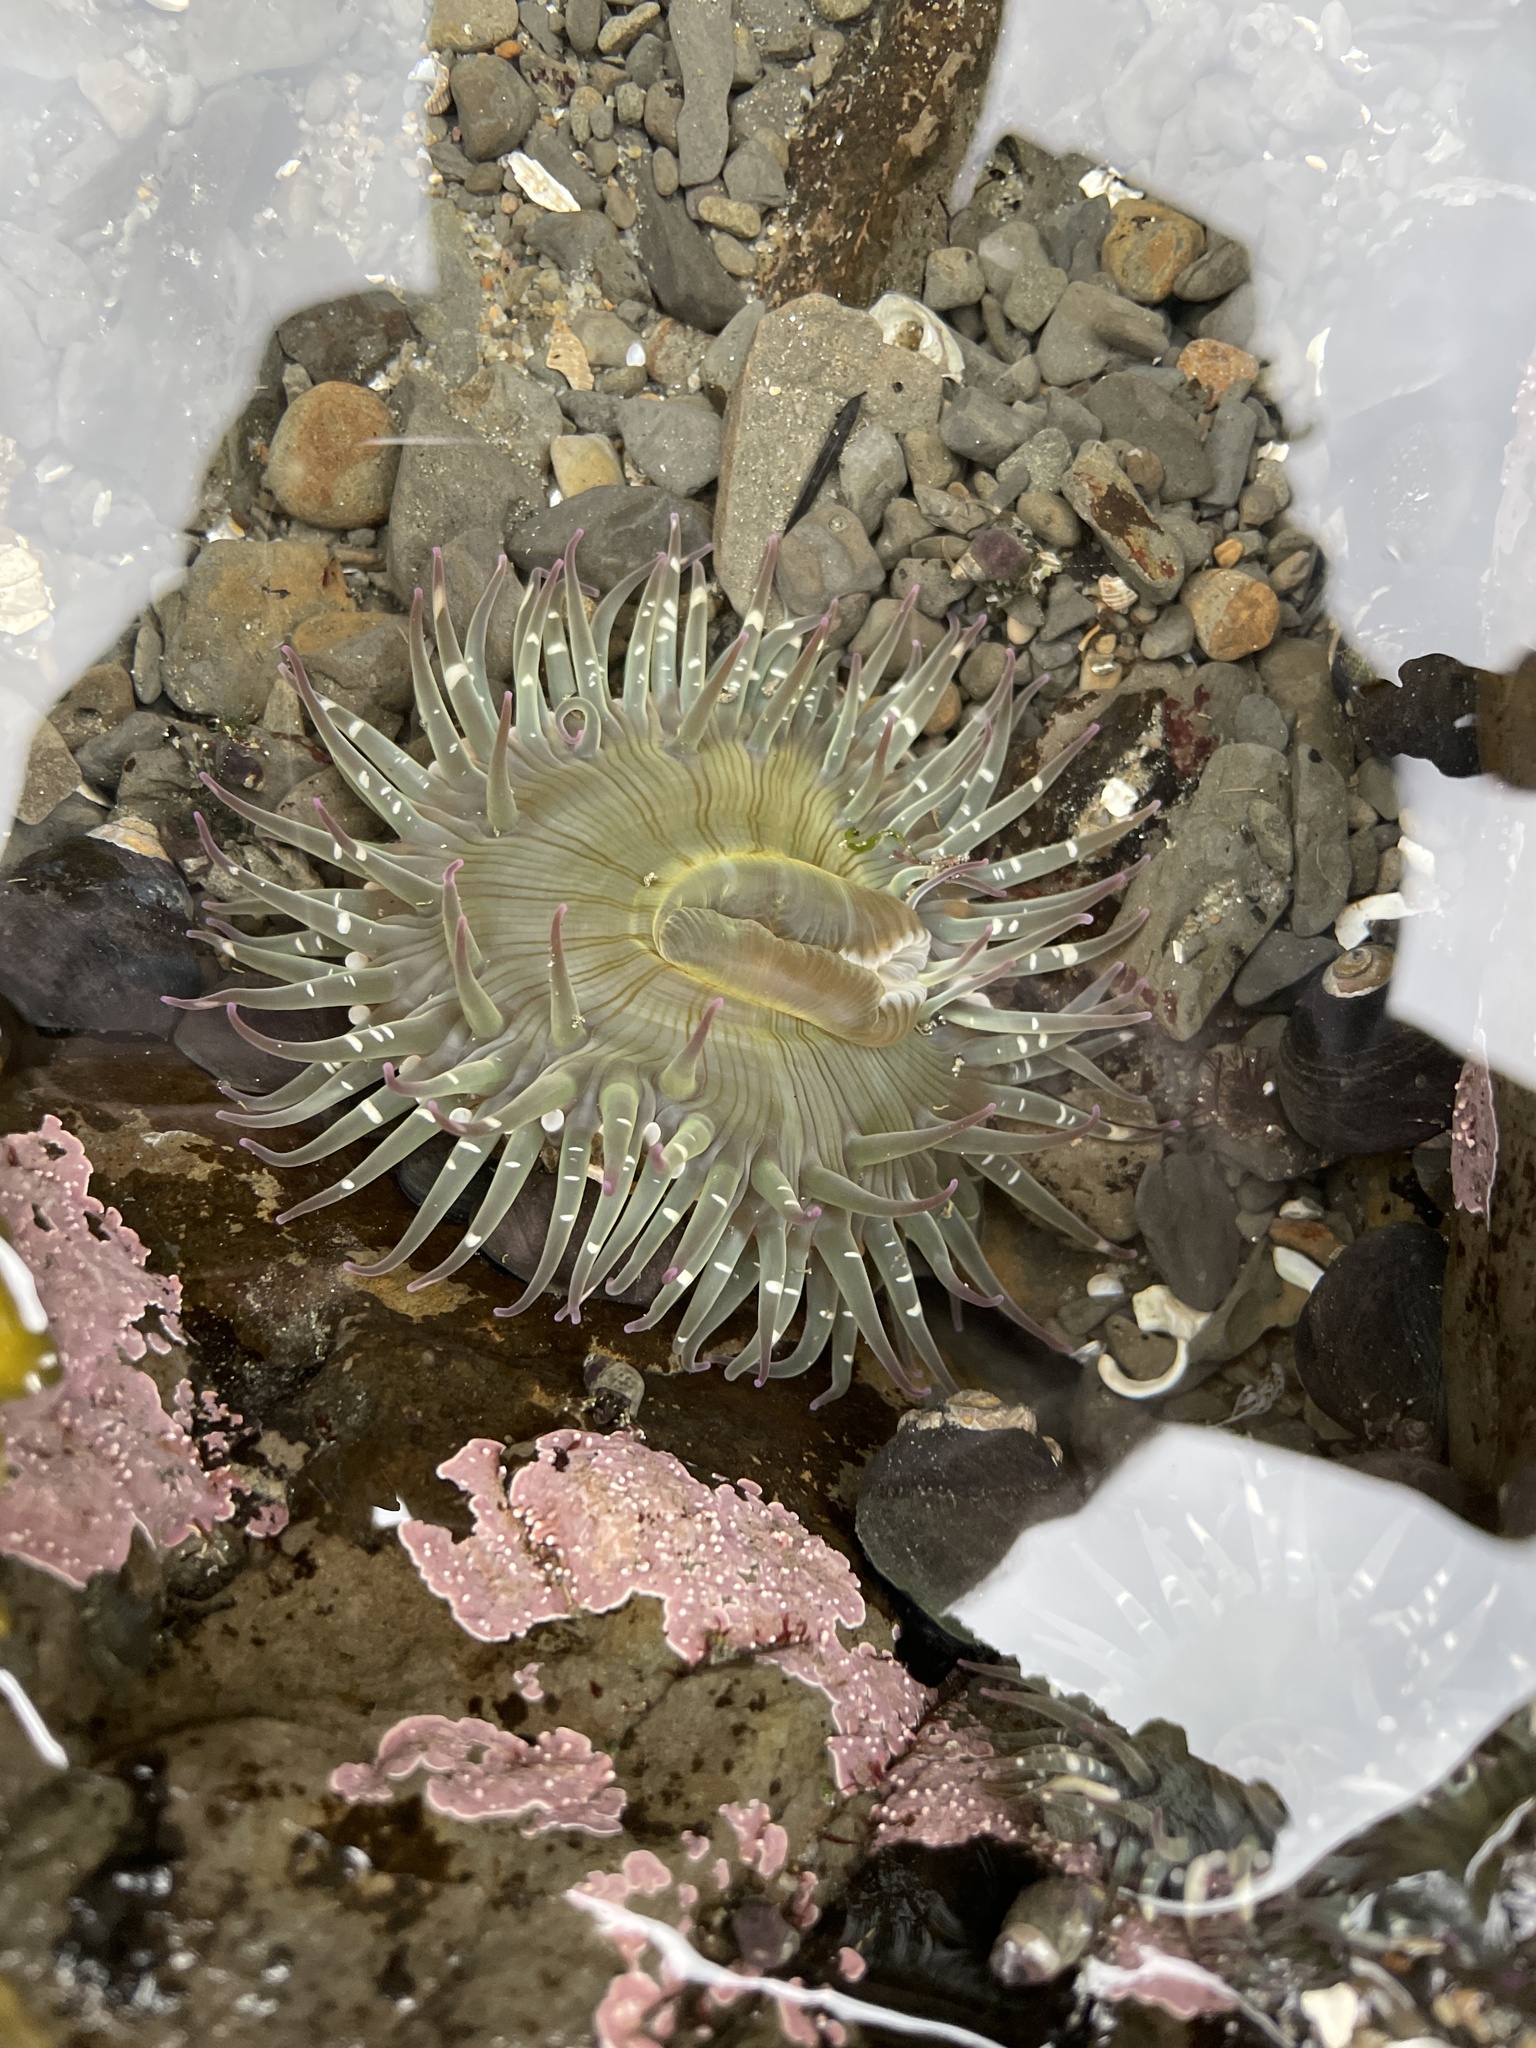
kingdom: Animalia
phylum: Cnidaria
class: Anthozoa
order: Actiniaria
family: Actiniidae
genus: Anthopleura
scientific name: Anthopleura sola
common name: Sun anemone
